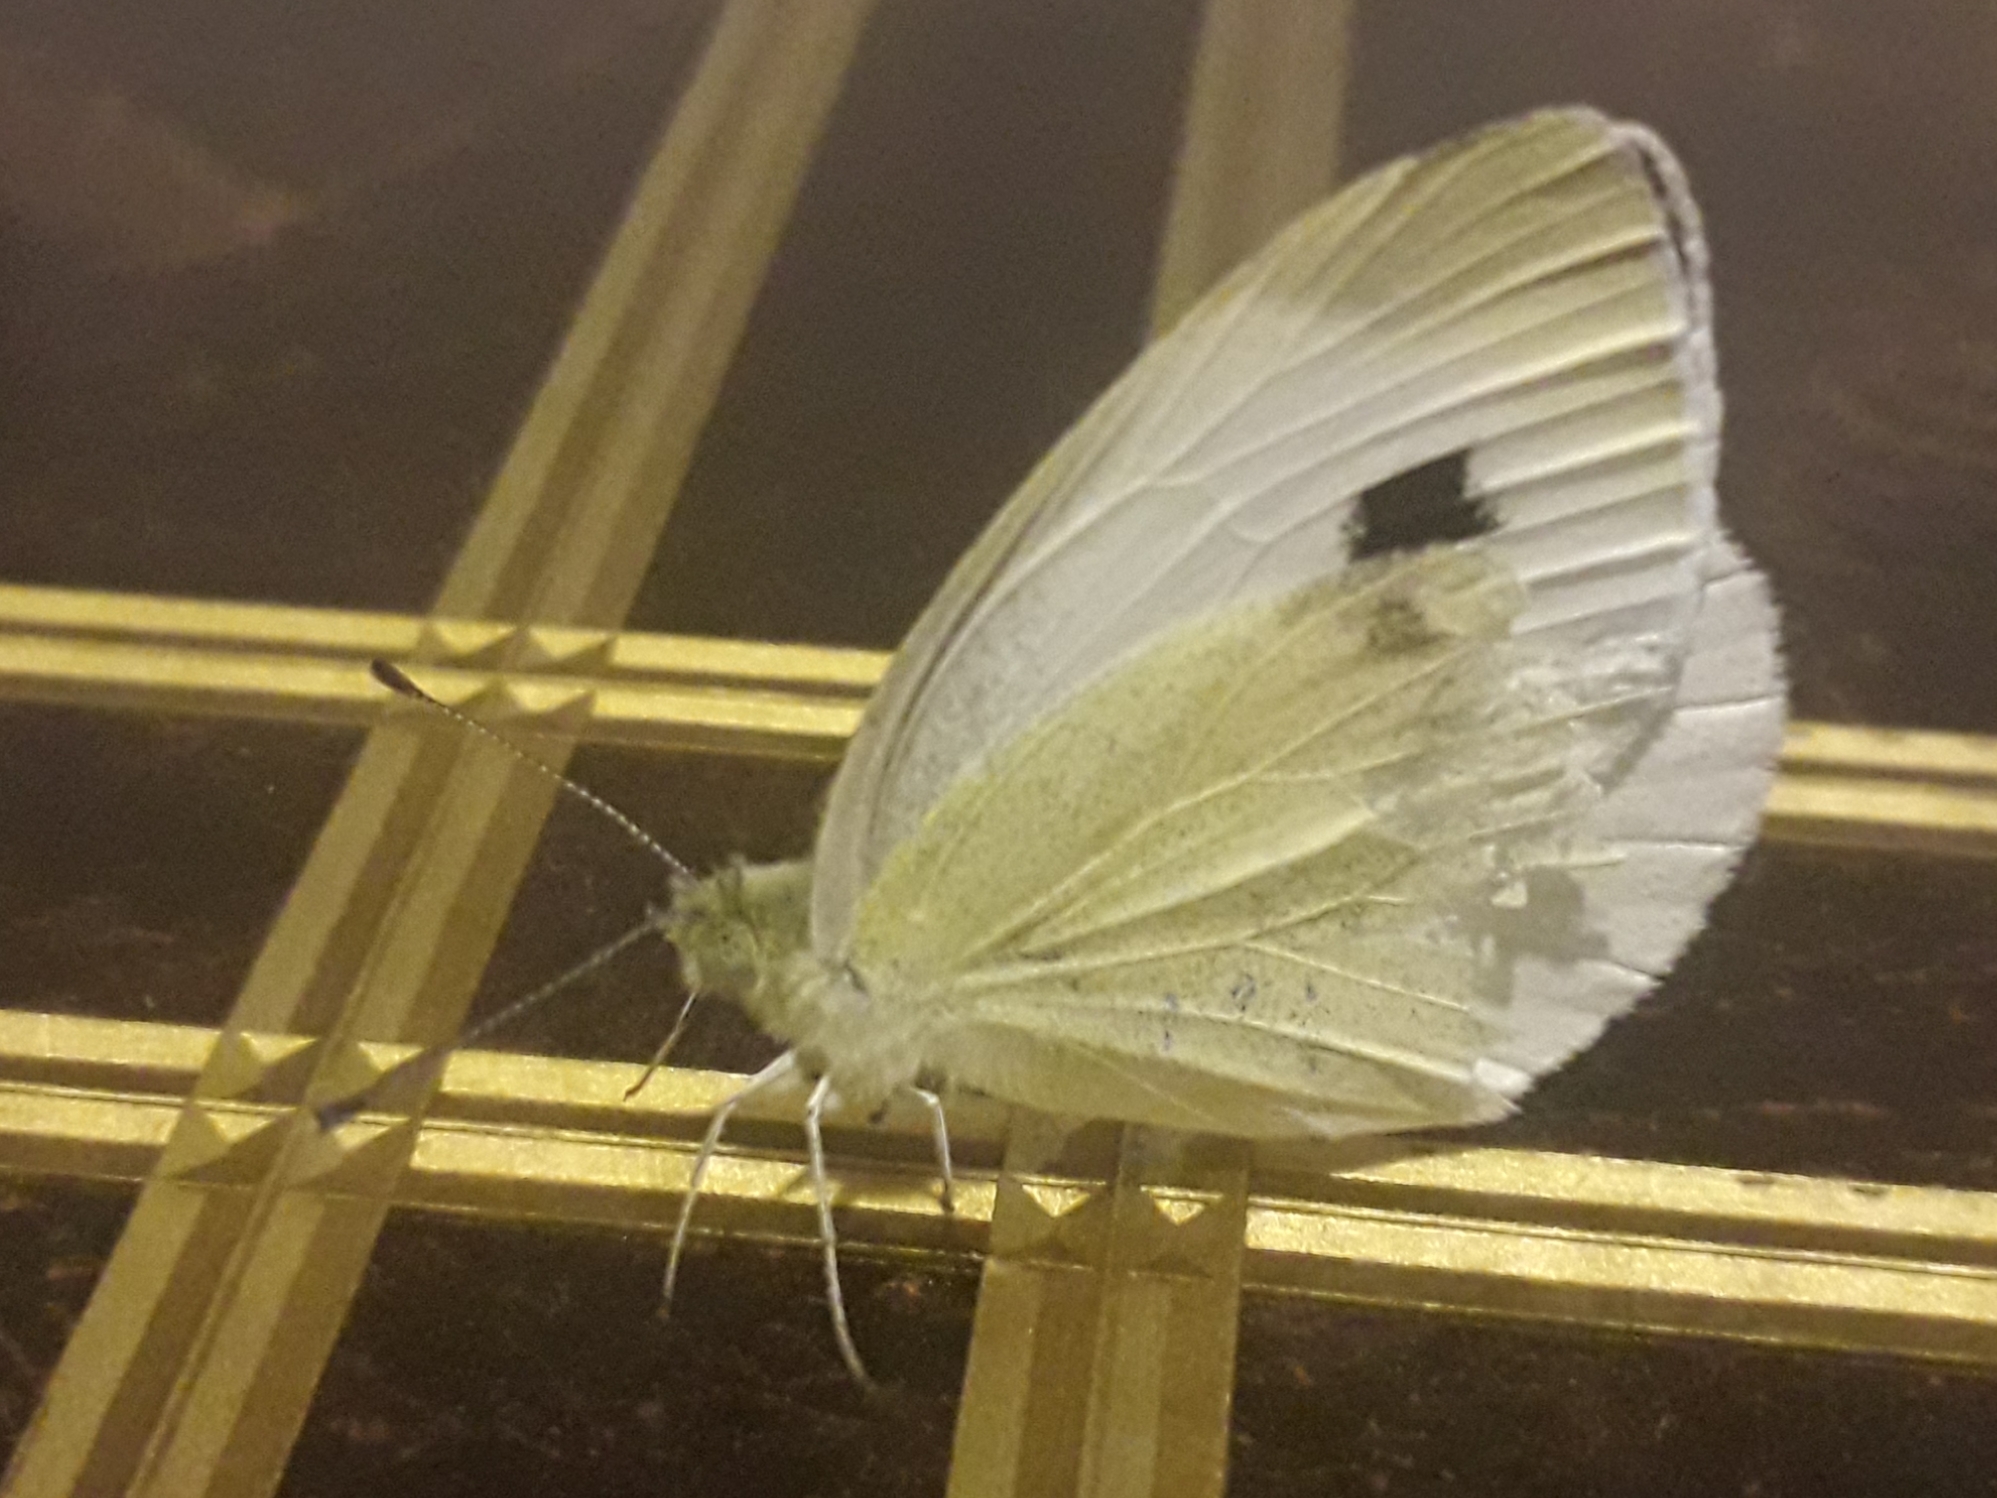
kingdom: Animalia
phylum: Arthropoda
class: Insecta
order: Lepidoptera
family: Pieridae
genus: Pieris
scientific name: Pieris mannii
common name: Southern small white
